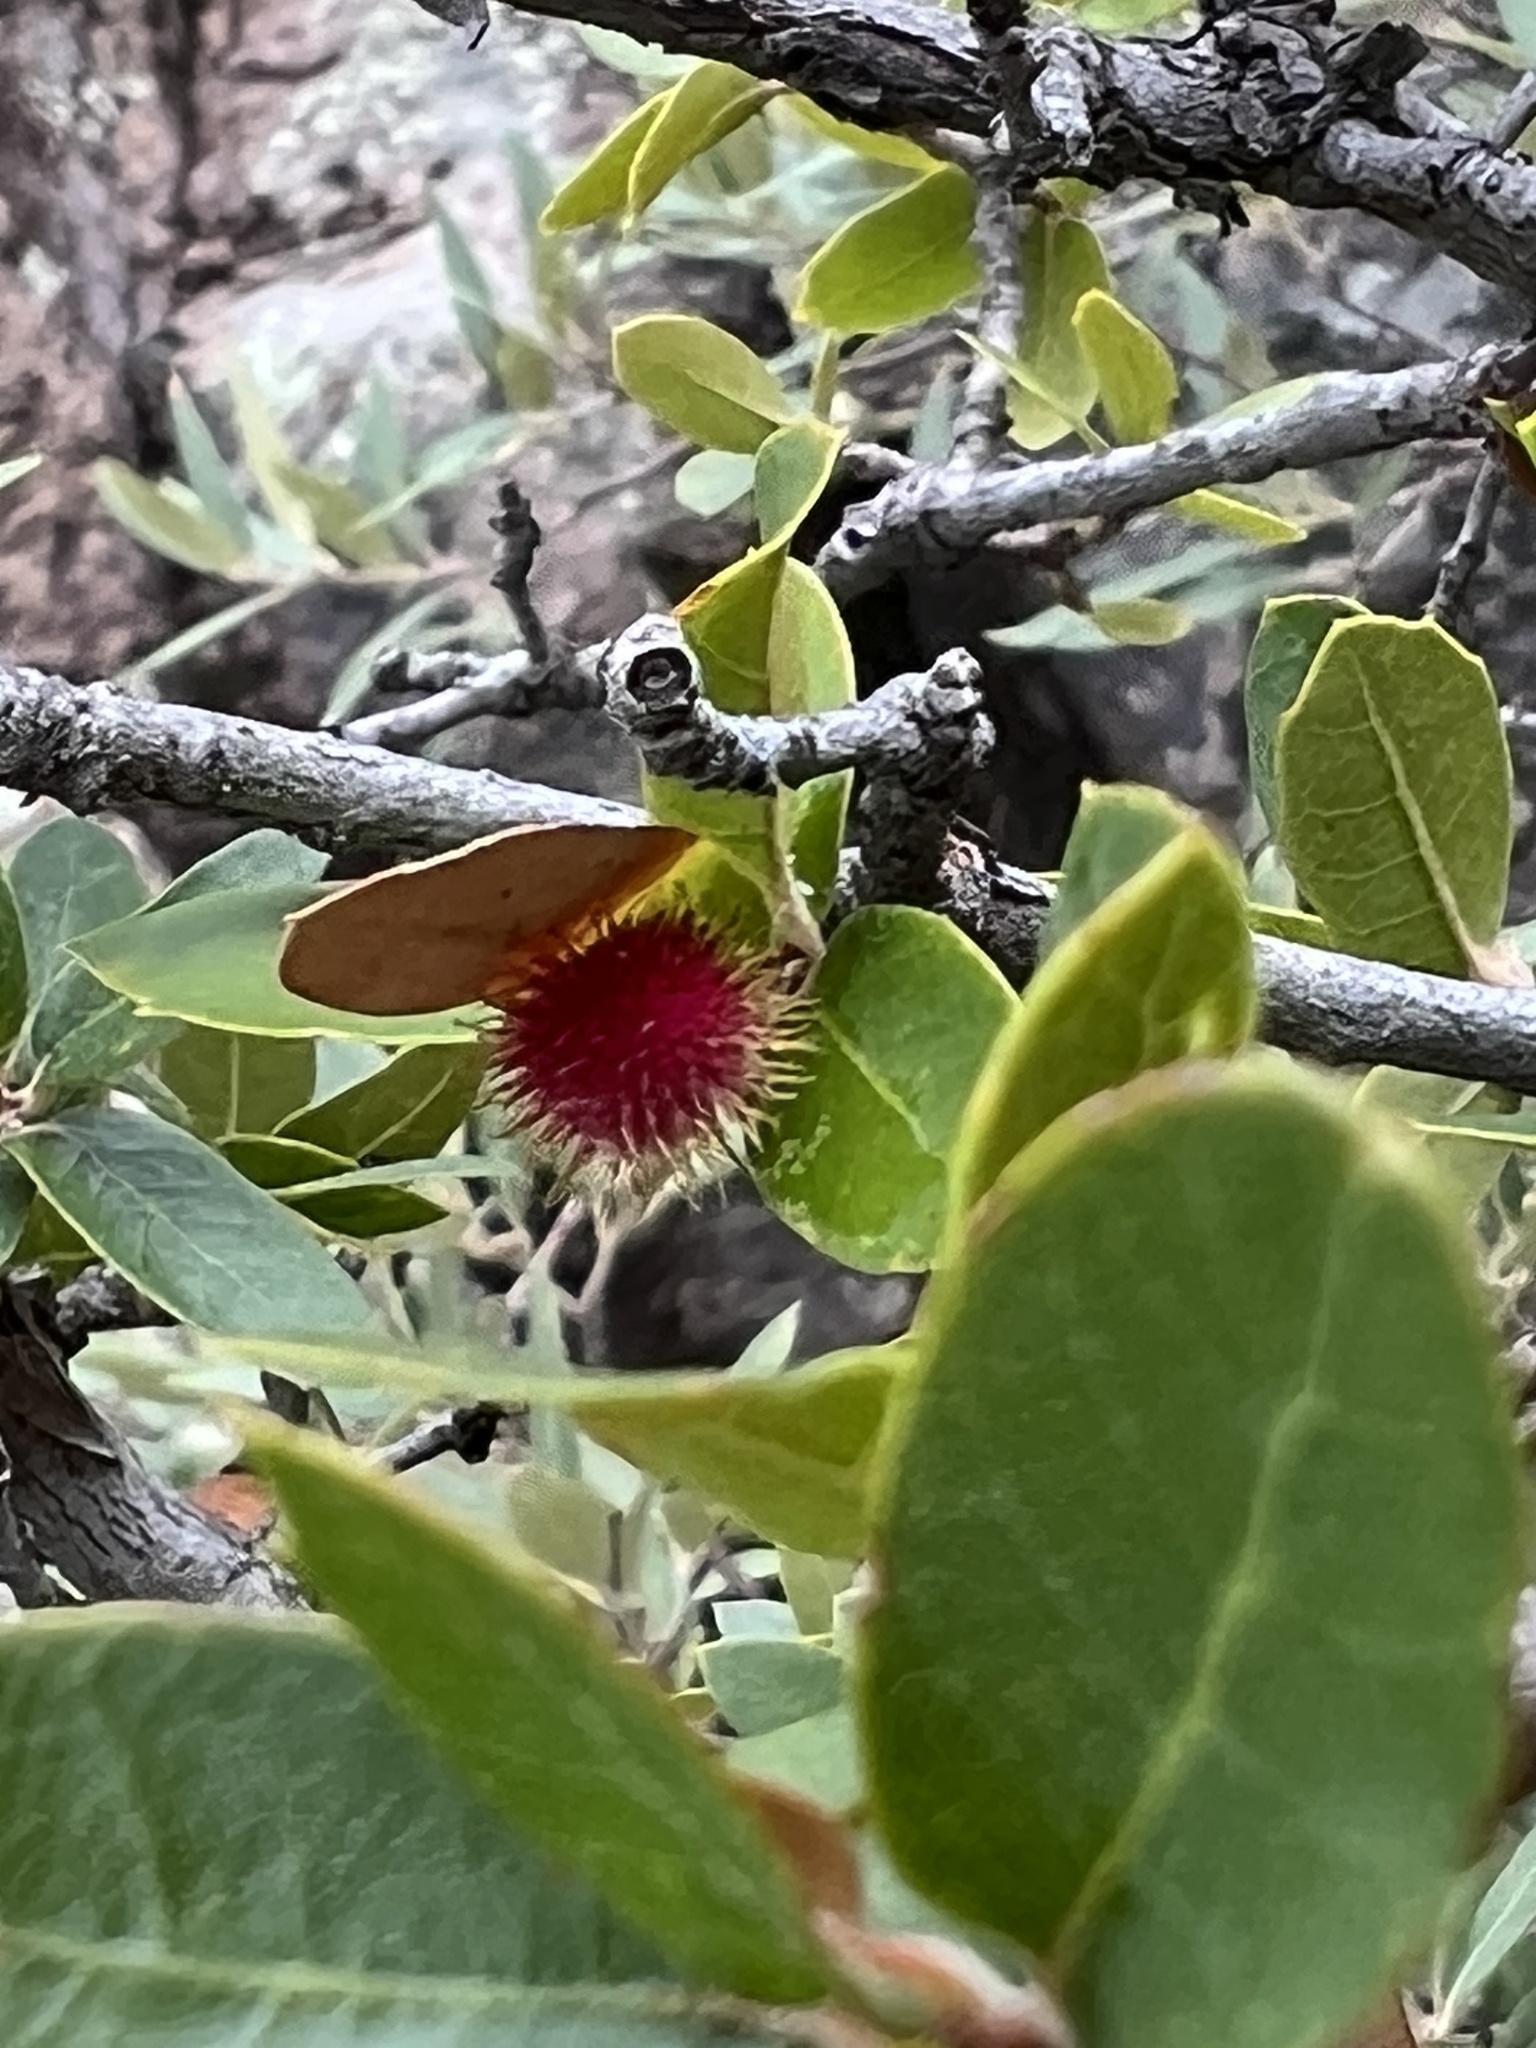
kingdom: Animalia
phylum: Arthropoda
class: Insecta
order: Hymenoptera
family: Cynipidae
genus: Cynips
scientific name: Cynips
